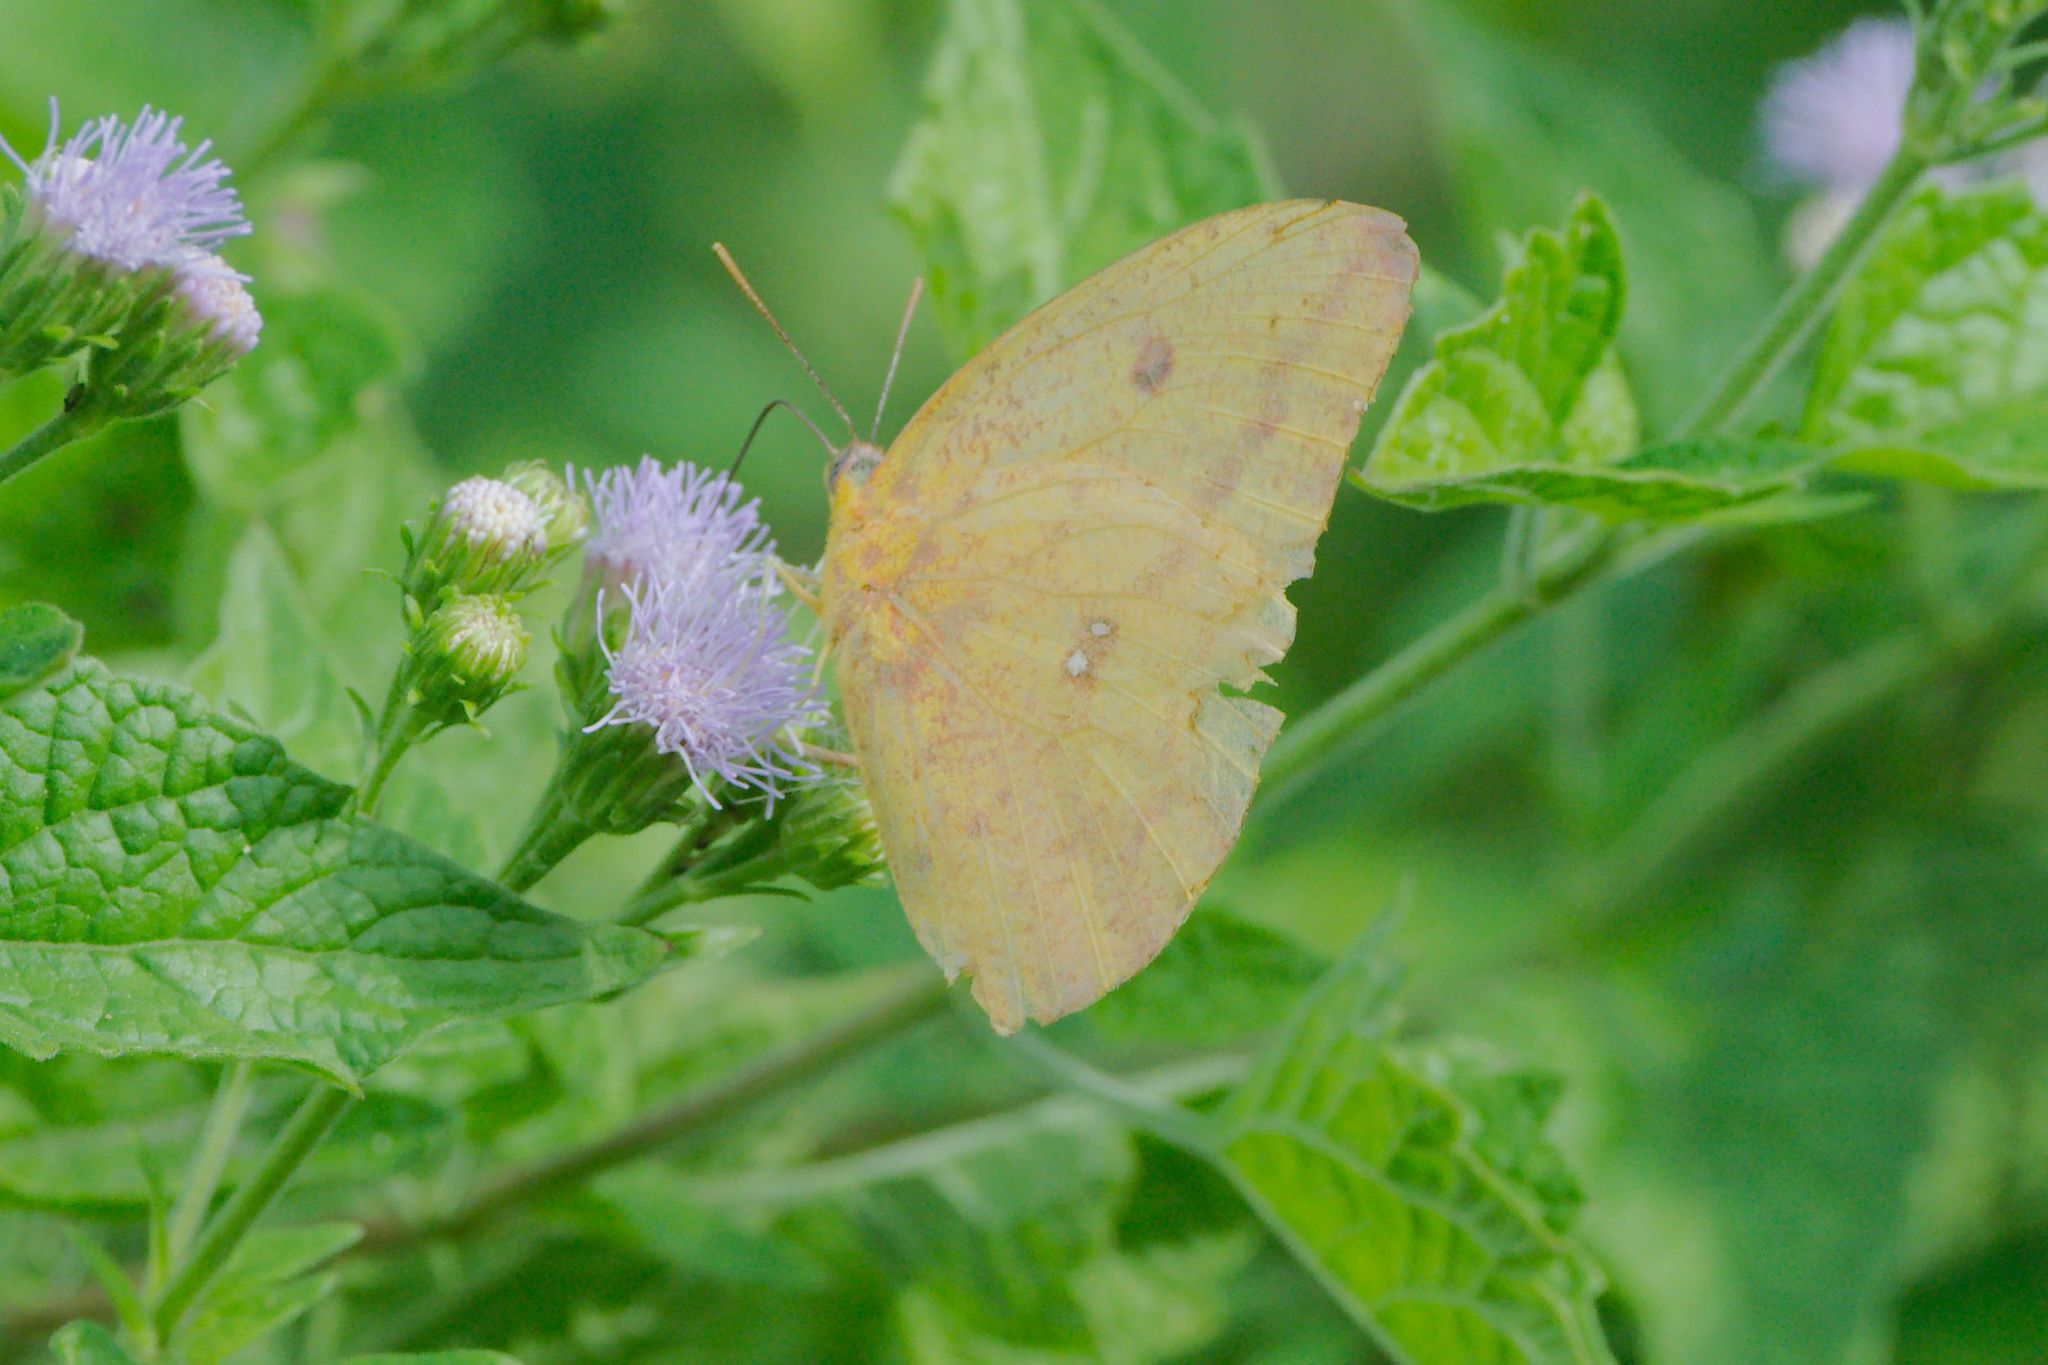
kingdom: Animalia
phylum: Arthropoda
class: Insecta
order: Lepidoptera
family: Pieridae
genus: Phoebis
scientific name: Phoebis agarithe
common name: Large orange sulphur
